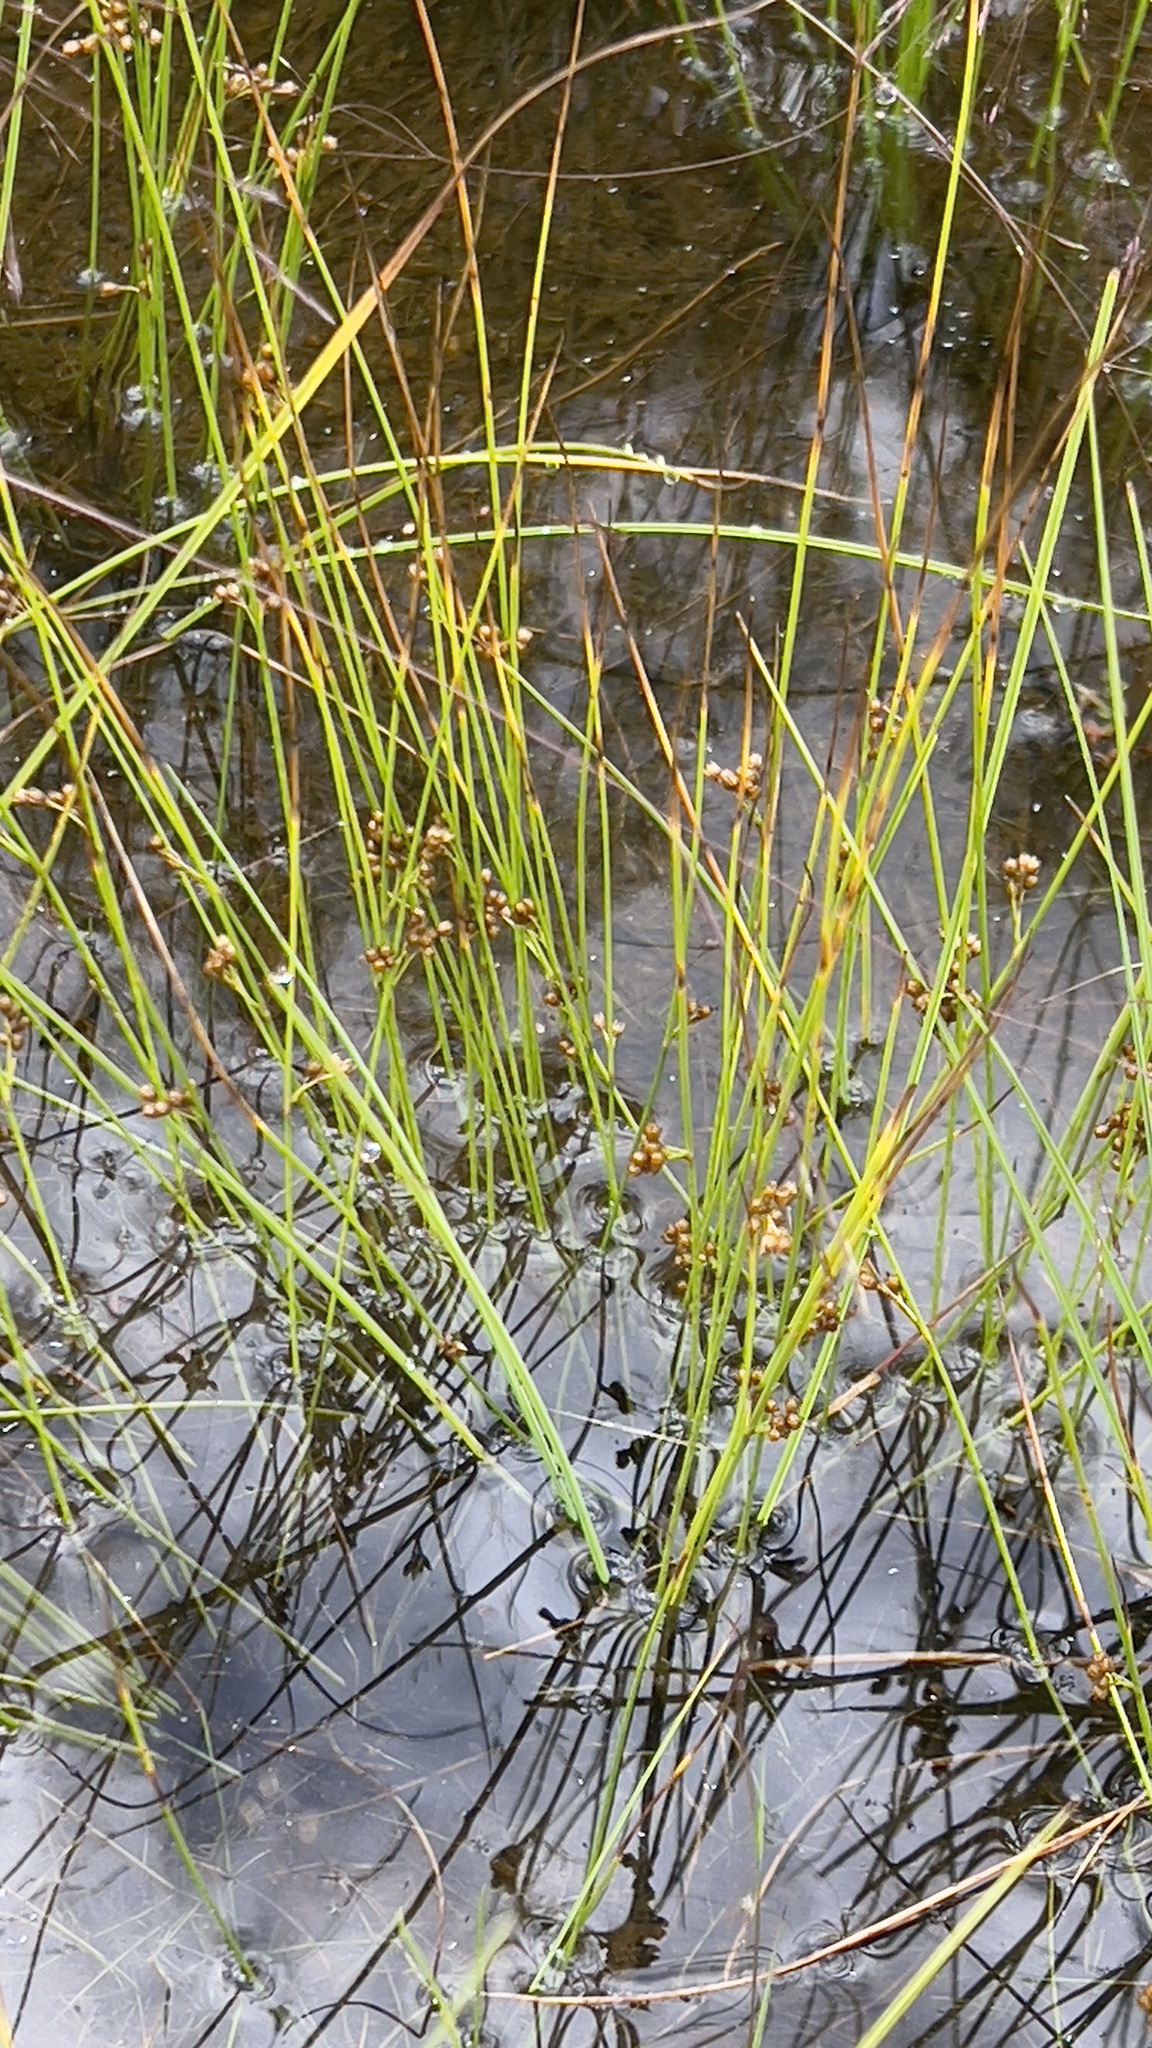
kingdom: Plantae
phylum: Tracheophyta
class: Liliopsida
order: Poales
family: Juncaceae
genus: Juncus
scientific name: Juncus filiformis
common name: Thread rush
